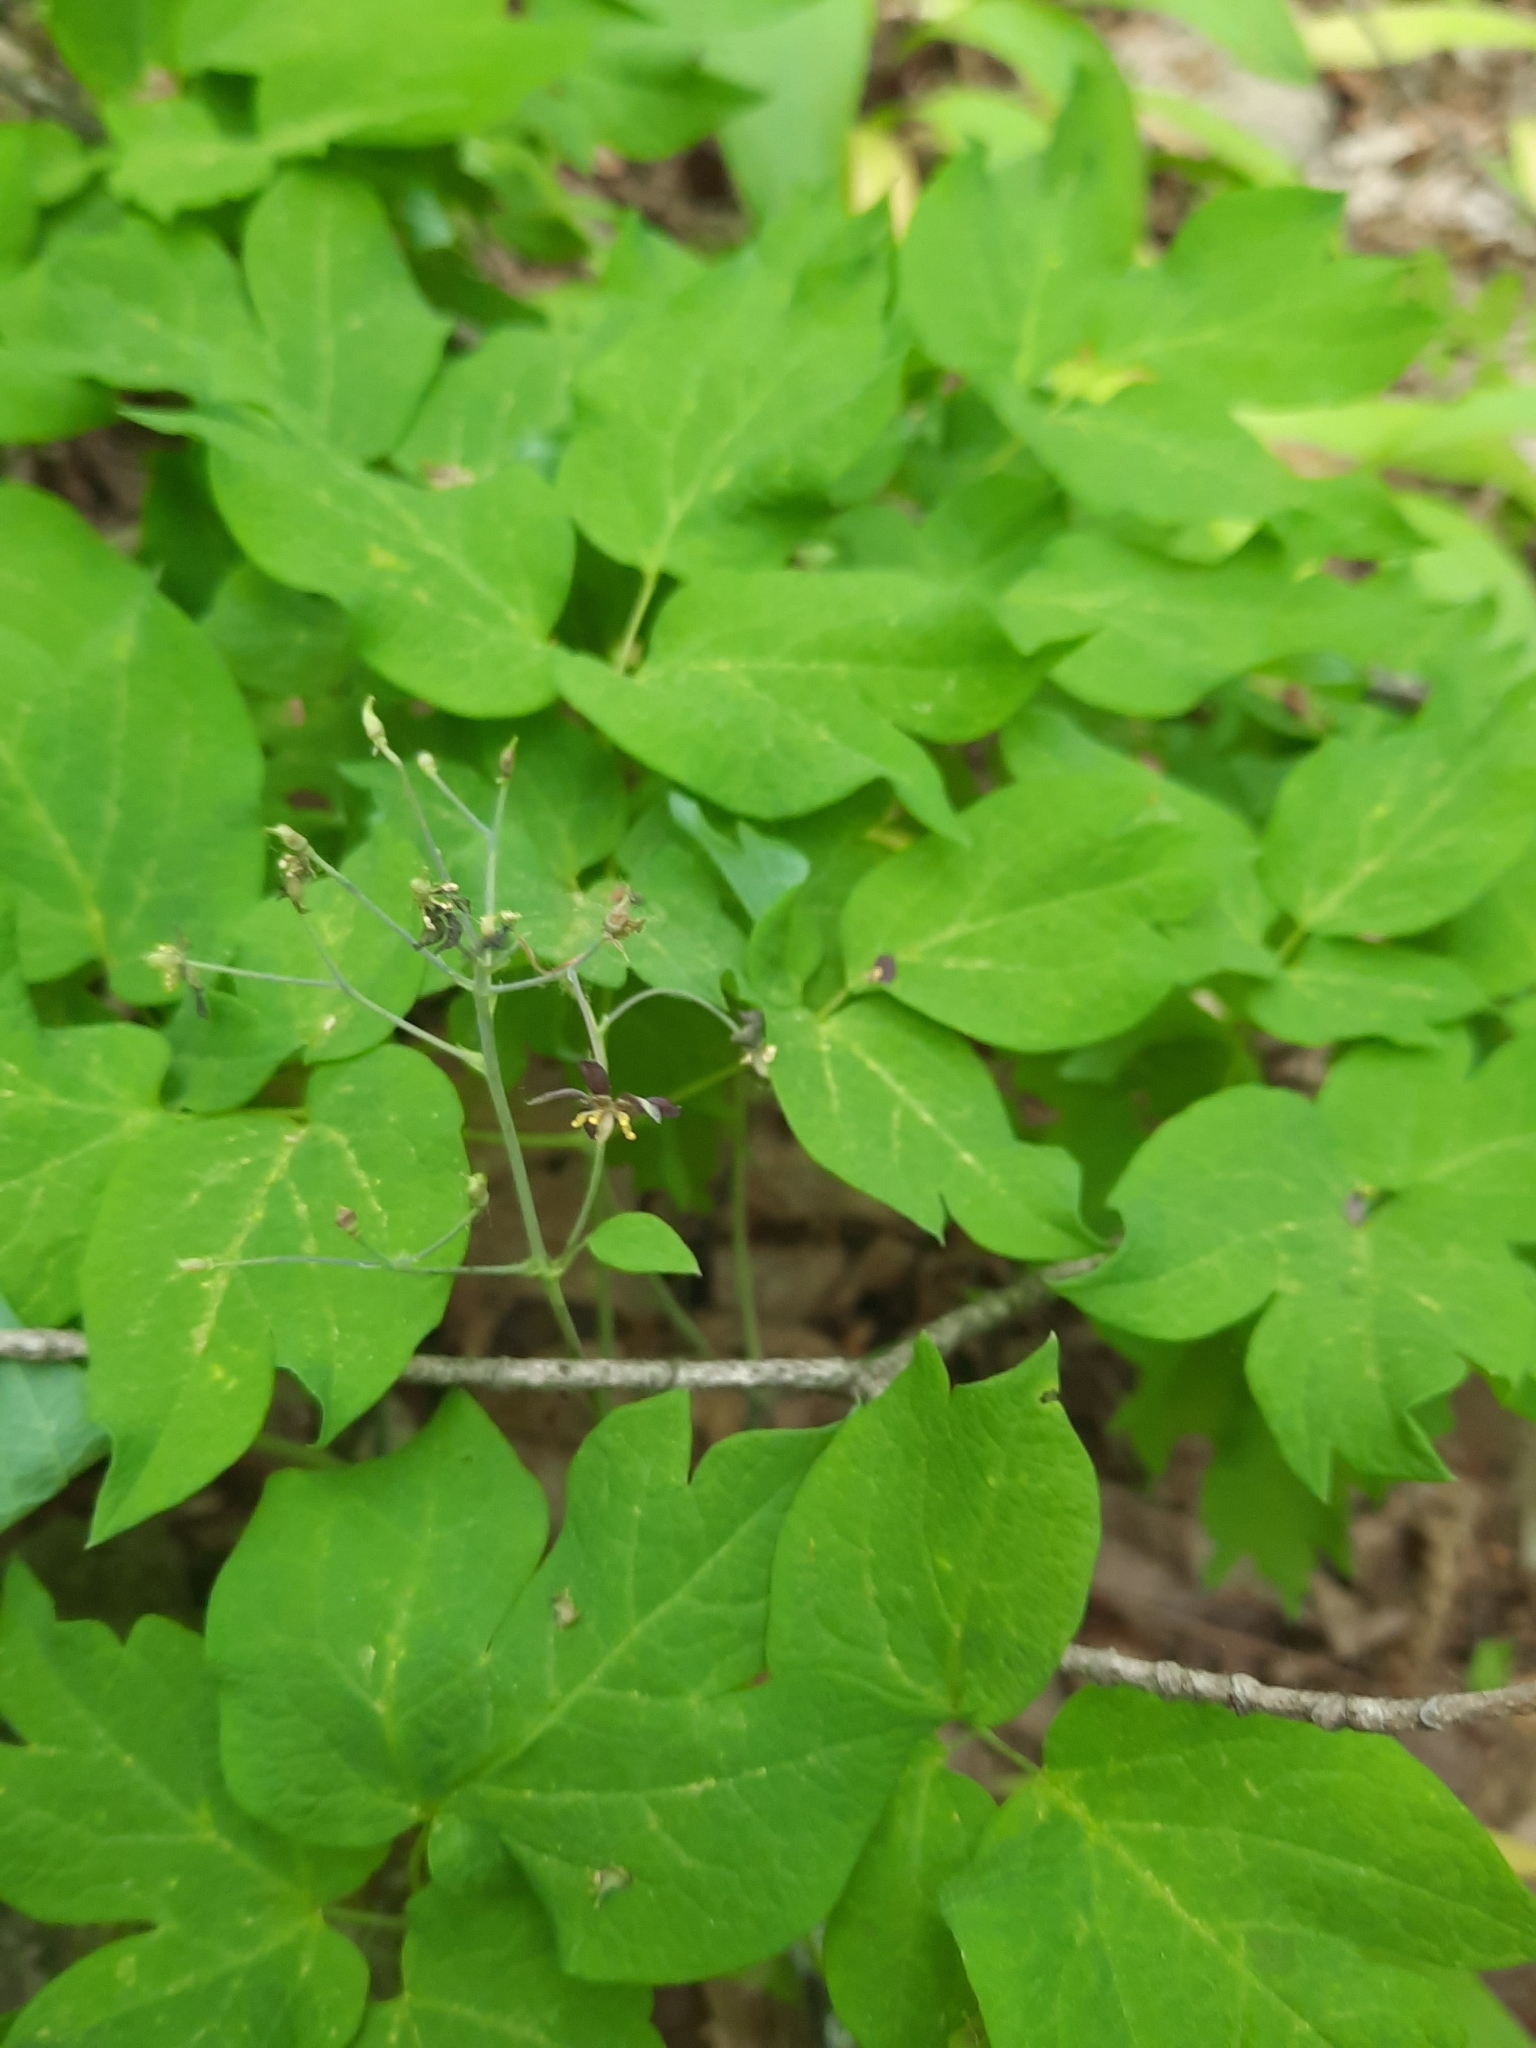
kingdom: Plantae
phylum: Tracheophyta
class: Magnoliopsida
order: Ranunculales
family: Berberidaceae
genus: Caulophyllum
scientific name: Caulophyllum thalictroides
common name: Blue cohosh
